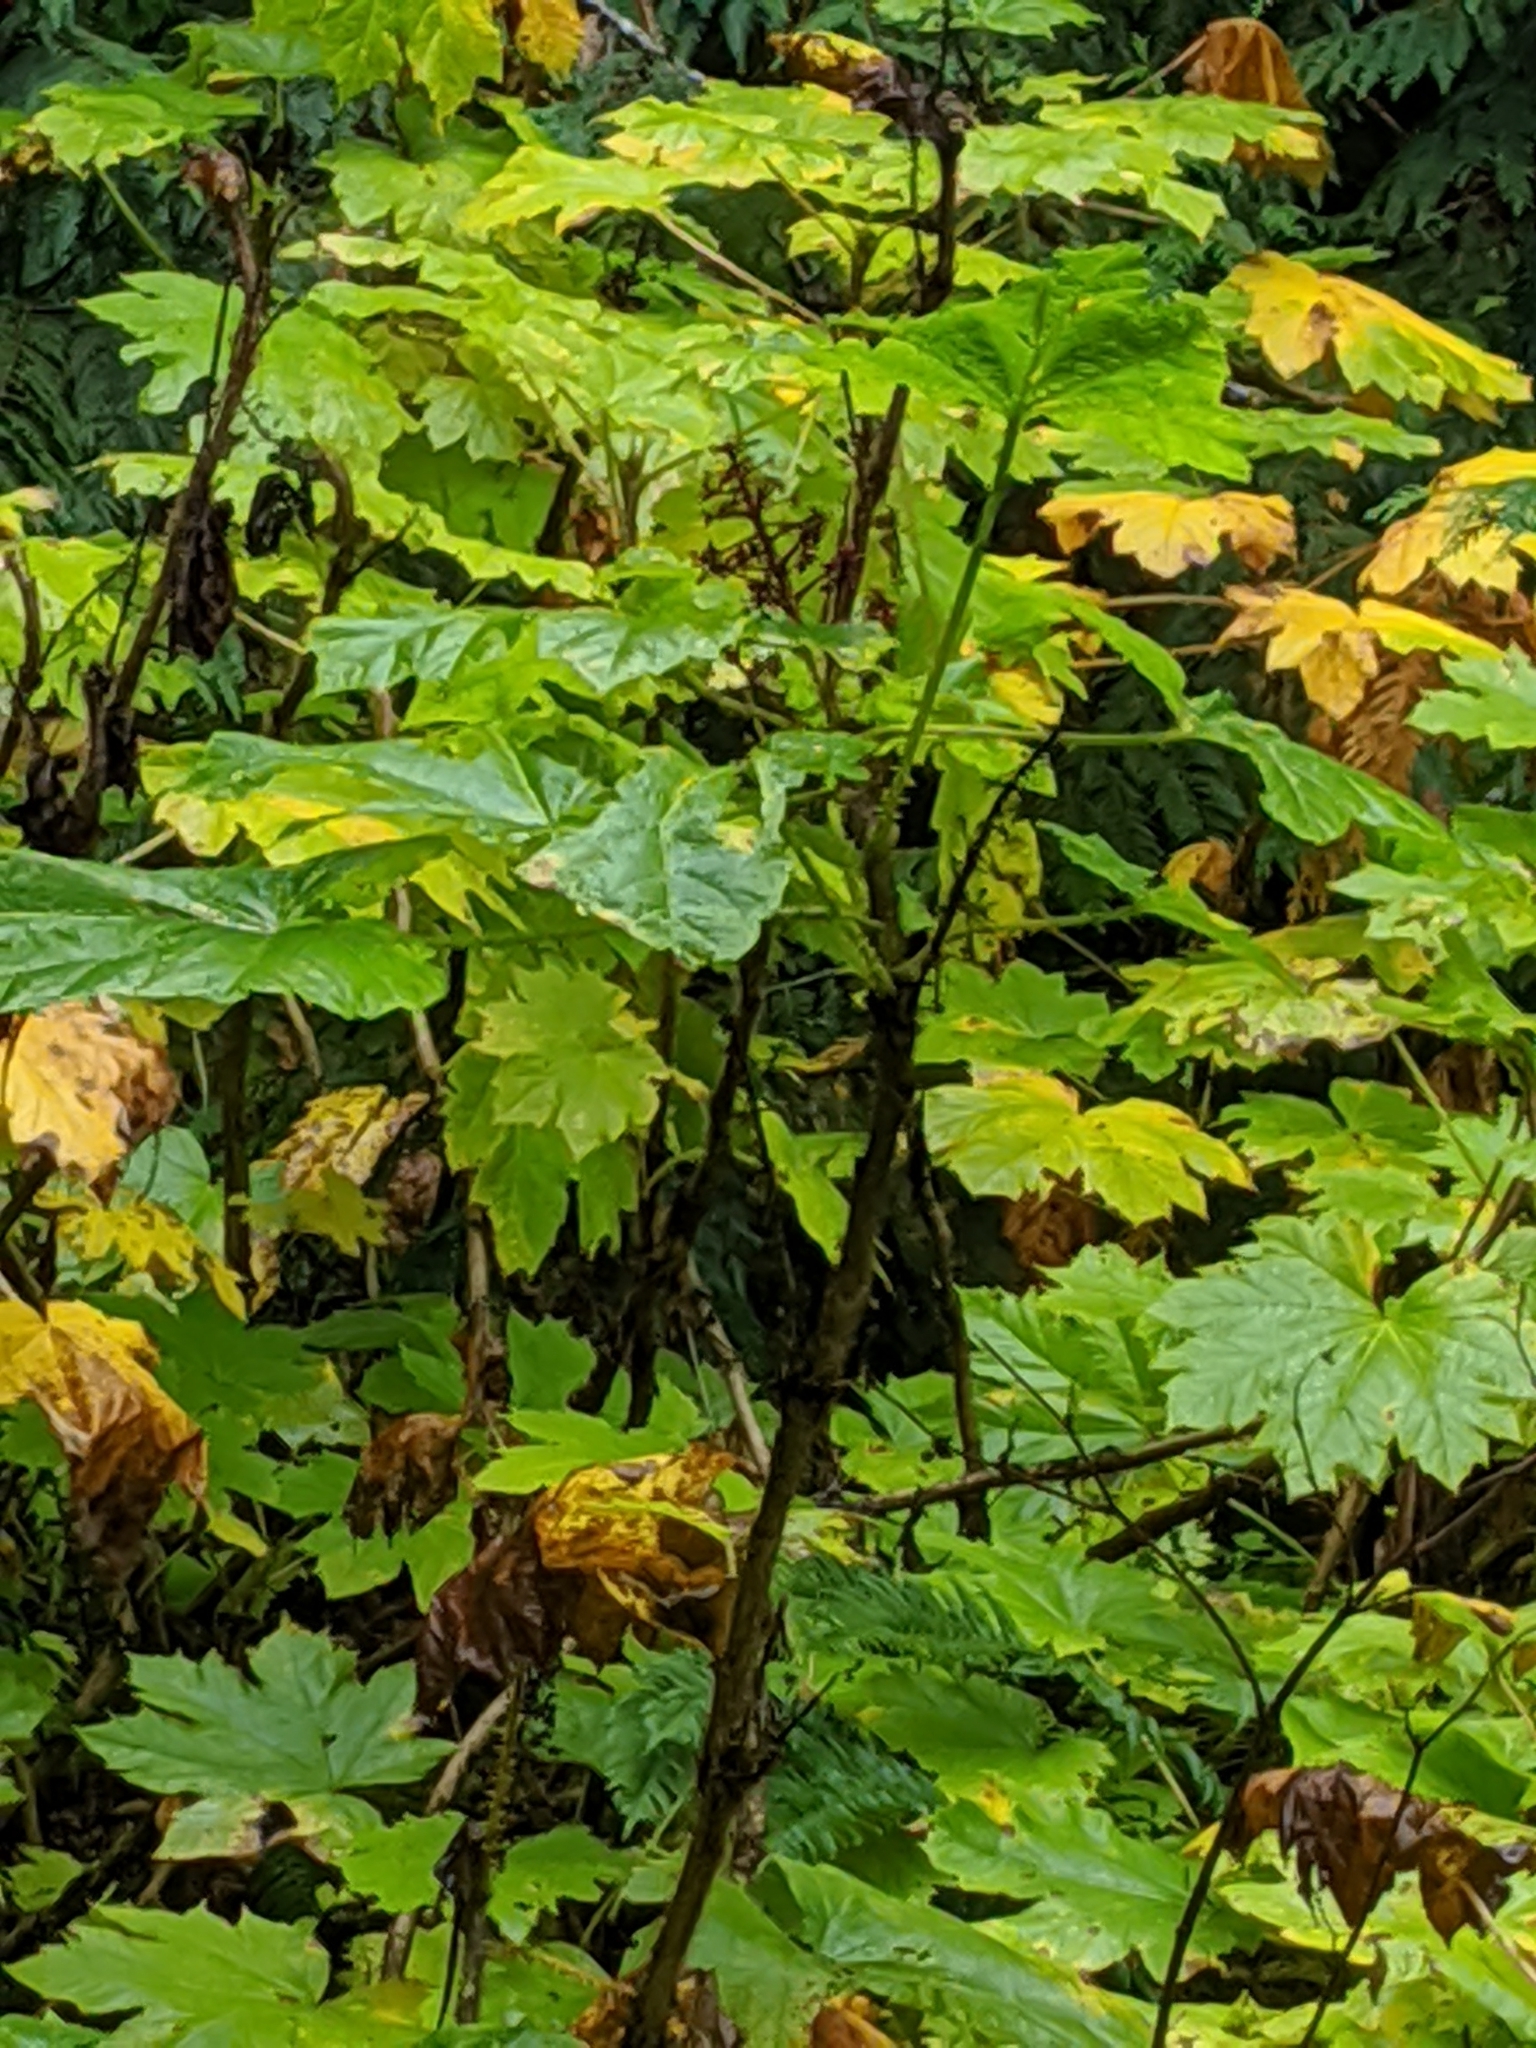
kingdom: Plantae
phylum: Tracheophyta
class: Magnoliopsida
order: Apiales
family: Araliaceae
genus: Oplopanax
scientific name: Oplopanax horridus
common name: Devil's walking-stick
